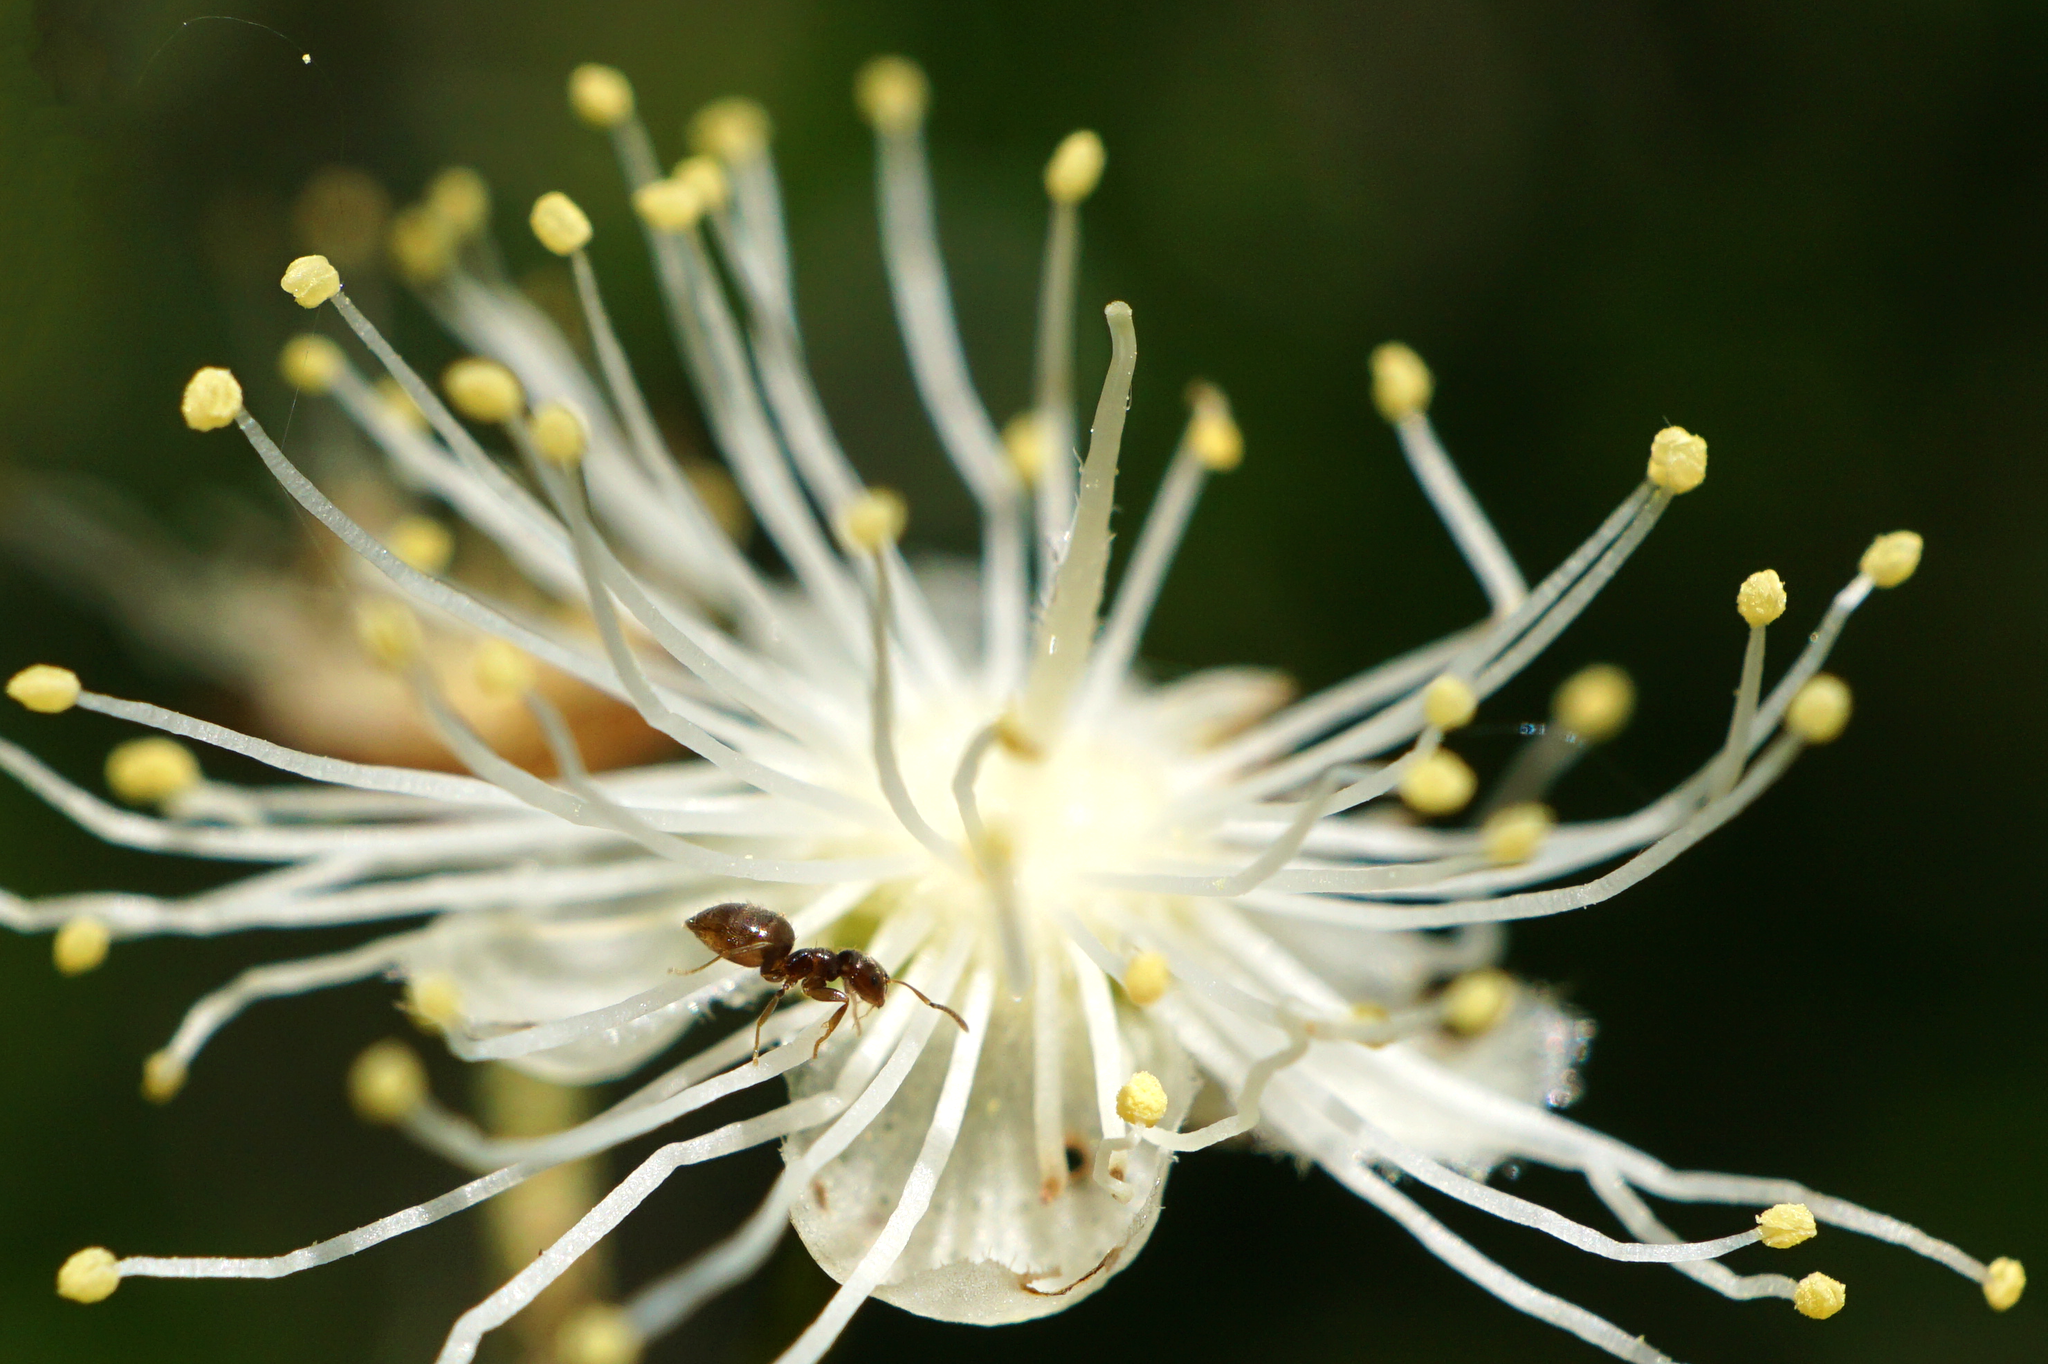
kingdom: Animalia
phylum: Arthropoda
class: Insecta
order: Hymenoptera
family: Formicidae
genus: Brachymyrmex
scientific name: Brachymyrmex obscurior
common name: Obscure rover ant
